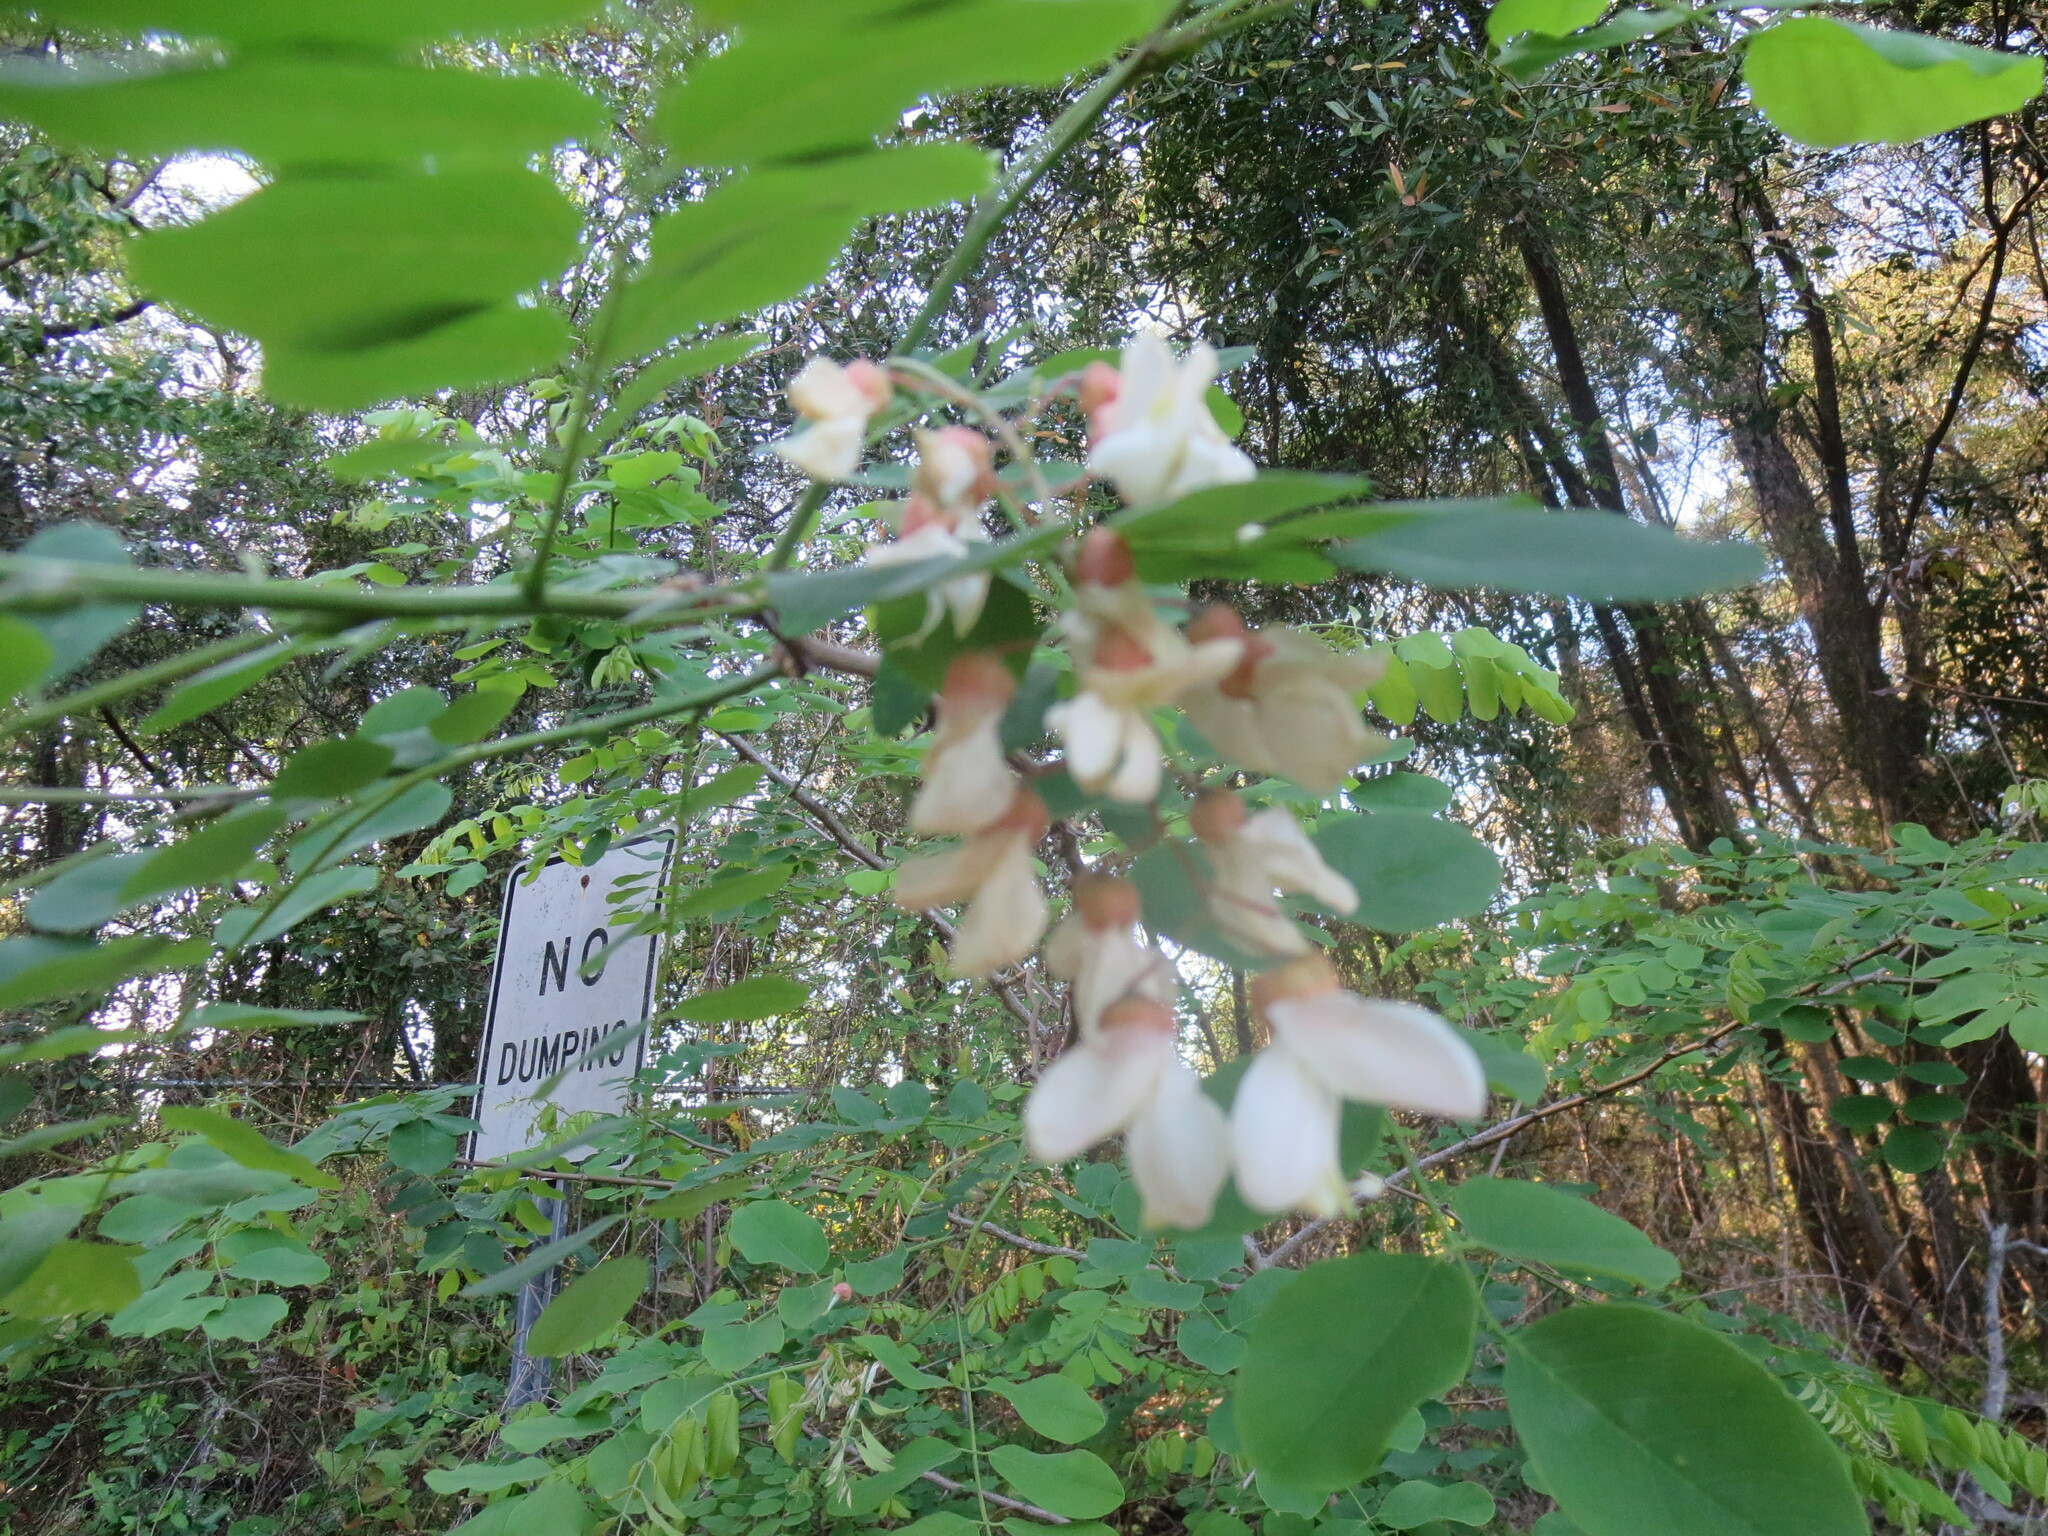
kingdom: Plantae
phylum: Tracheophyta
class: Magnoliopsida
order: Fabales
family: Fabaceae
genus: Robinia
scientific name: Robinia pseudoacacia
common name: Black locust
